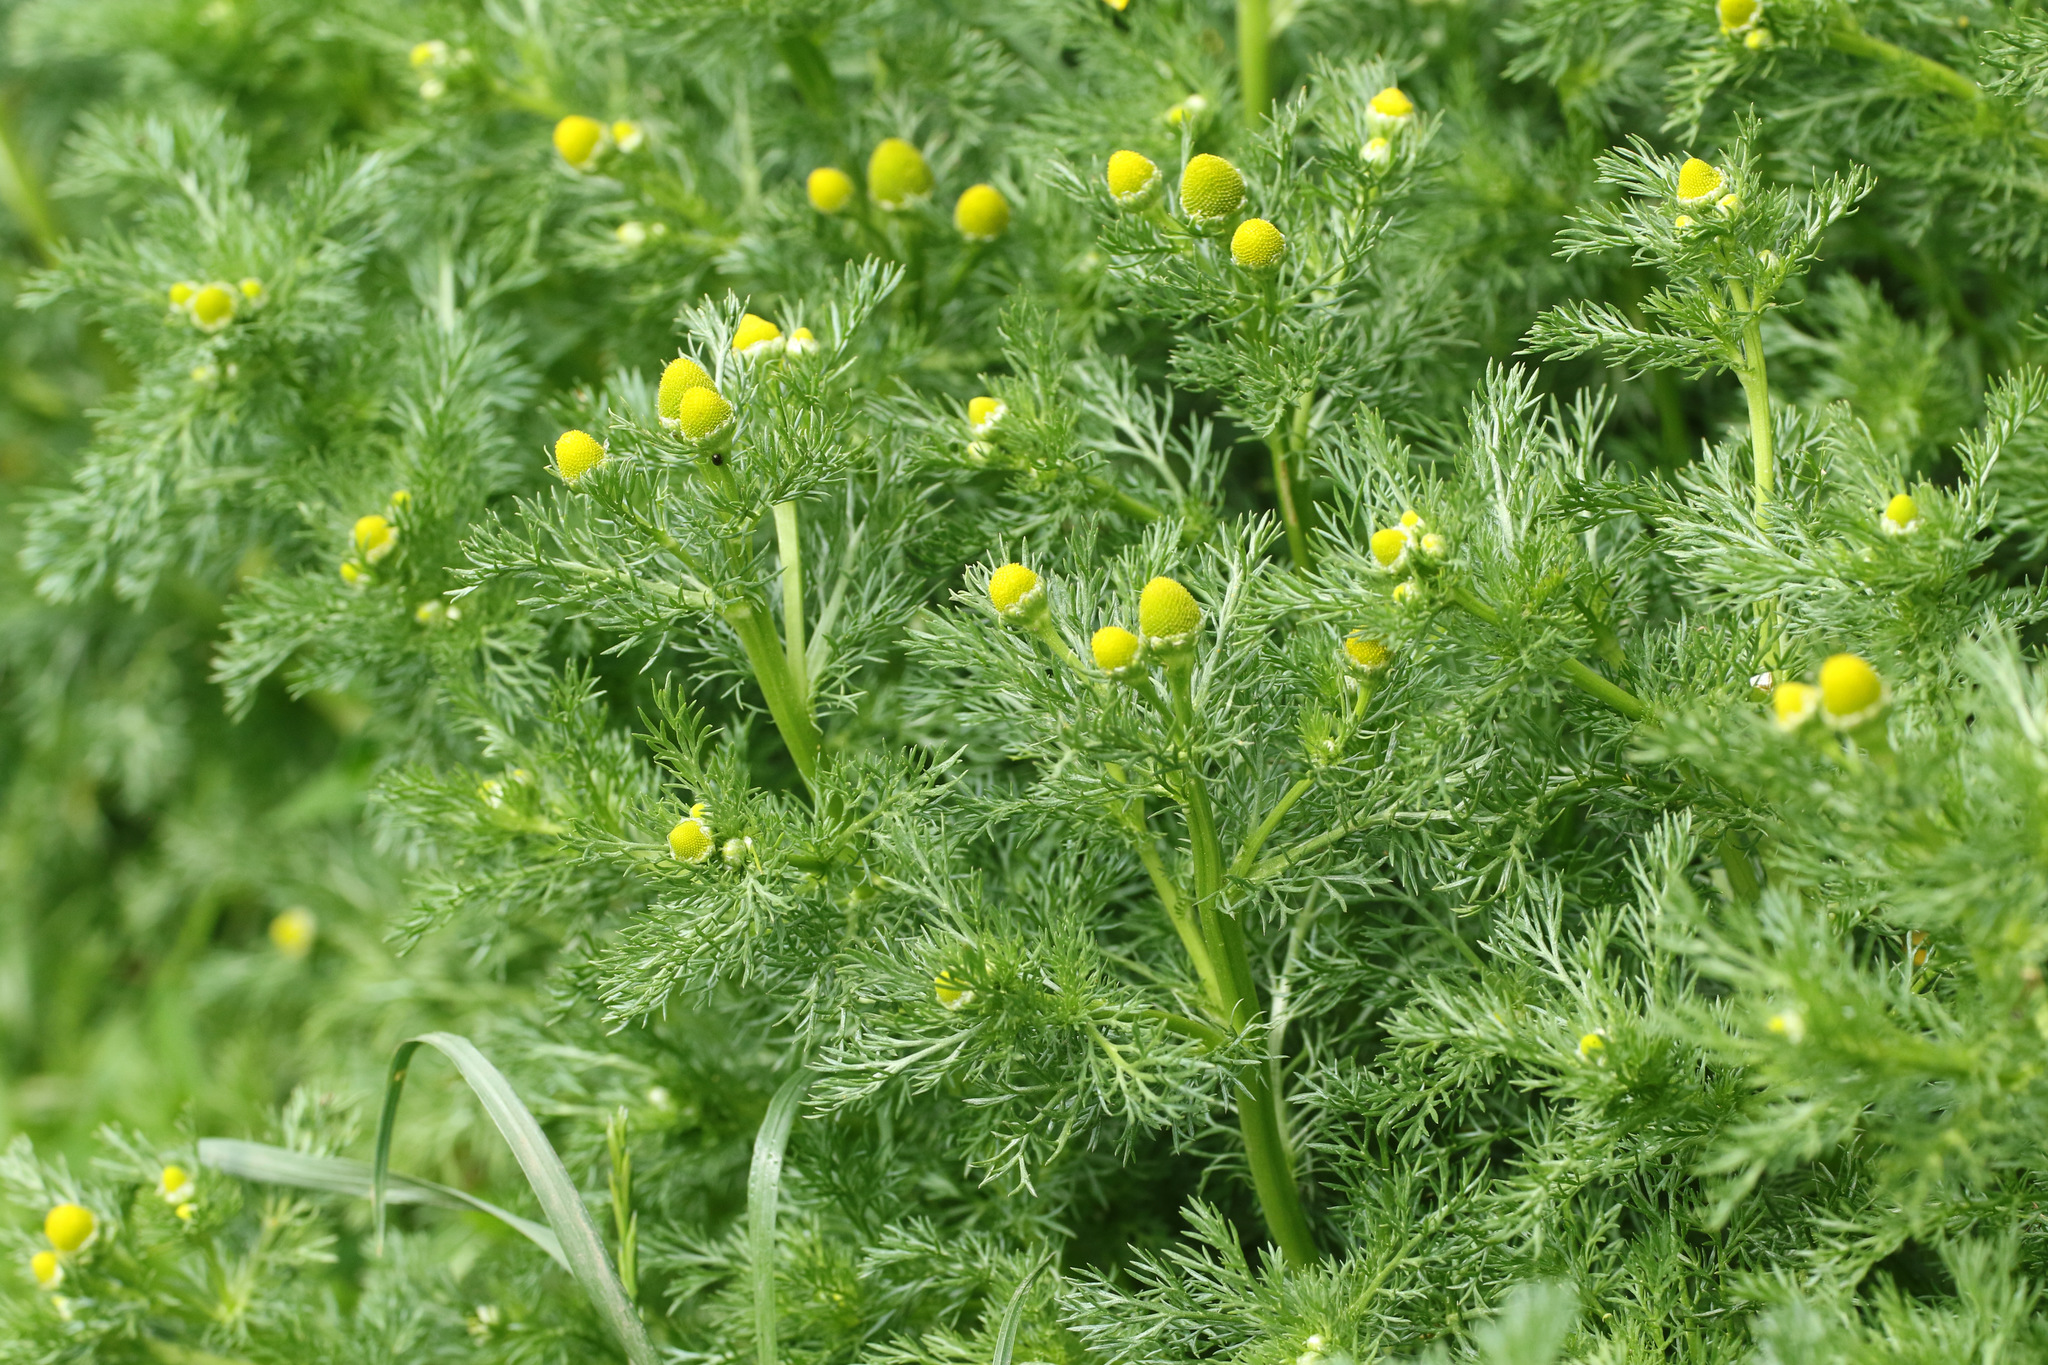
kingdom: Plantae
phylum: Tracheophyta
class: Magnoliopsida
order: Asterales
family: Asteraceae
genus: Matricaria
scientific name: Matricaria discoidea
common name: Disc mayweed
